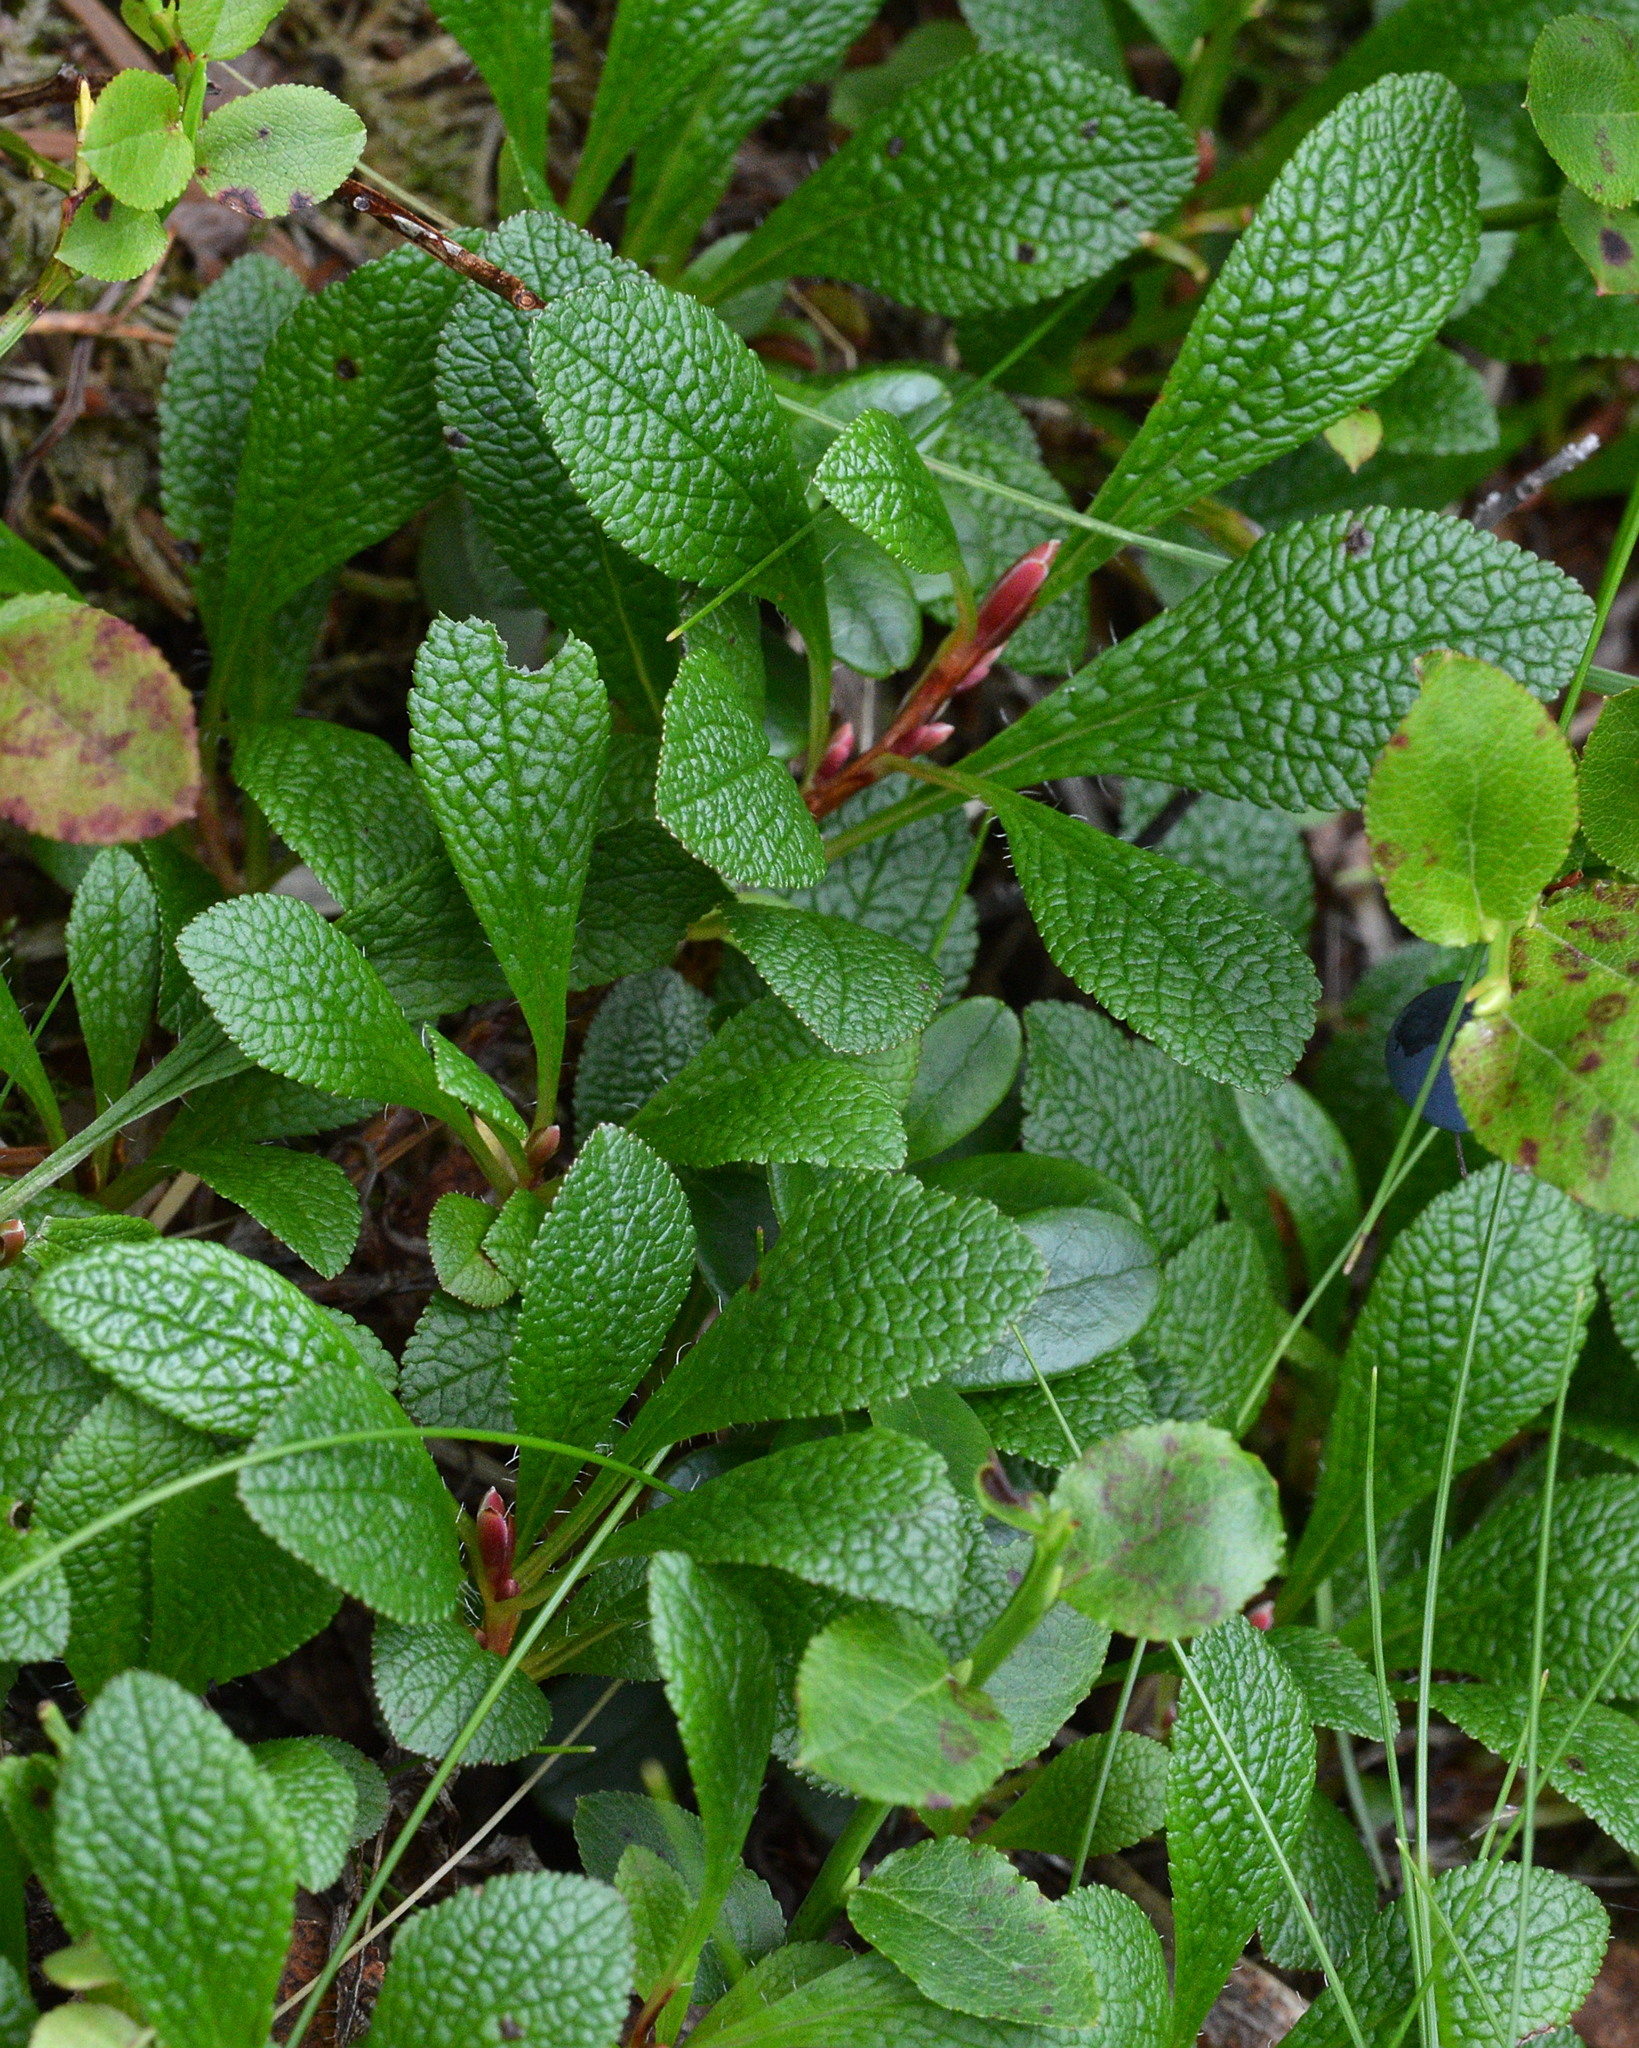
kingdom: Plantae
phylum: Tracheophyta
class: Magnoliopsida
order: Ericales
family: Ericaceae
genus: Arctostaphylos
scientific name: Arctostaphylos alpinus
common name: Alpine bearberry
